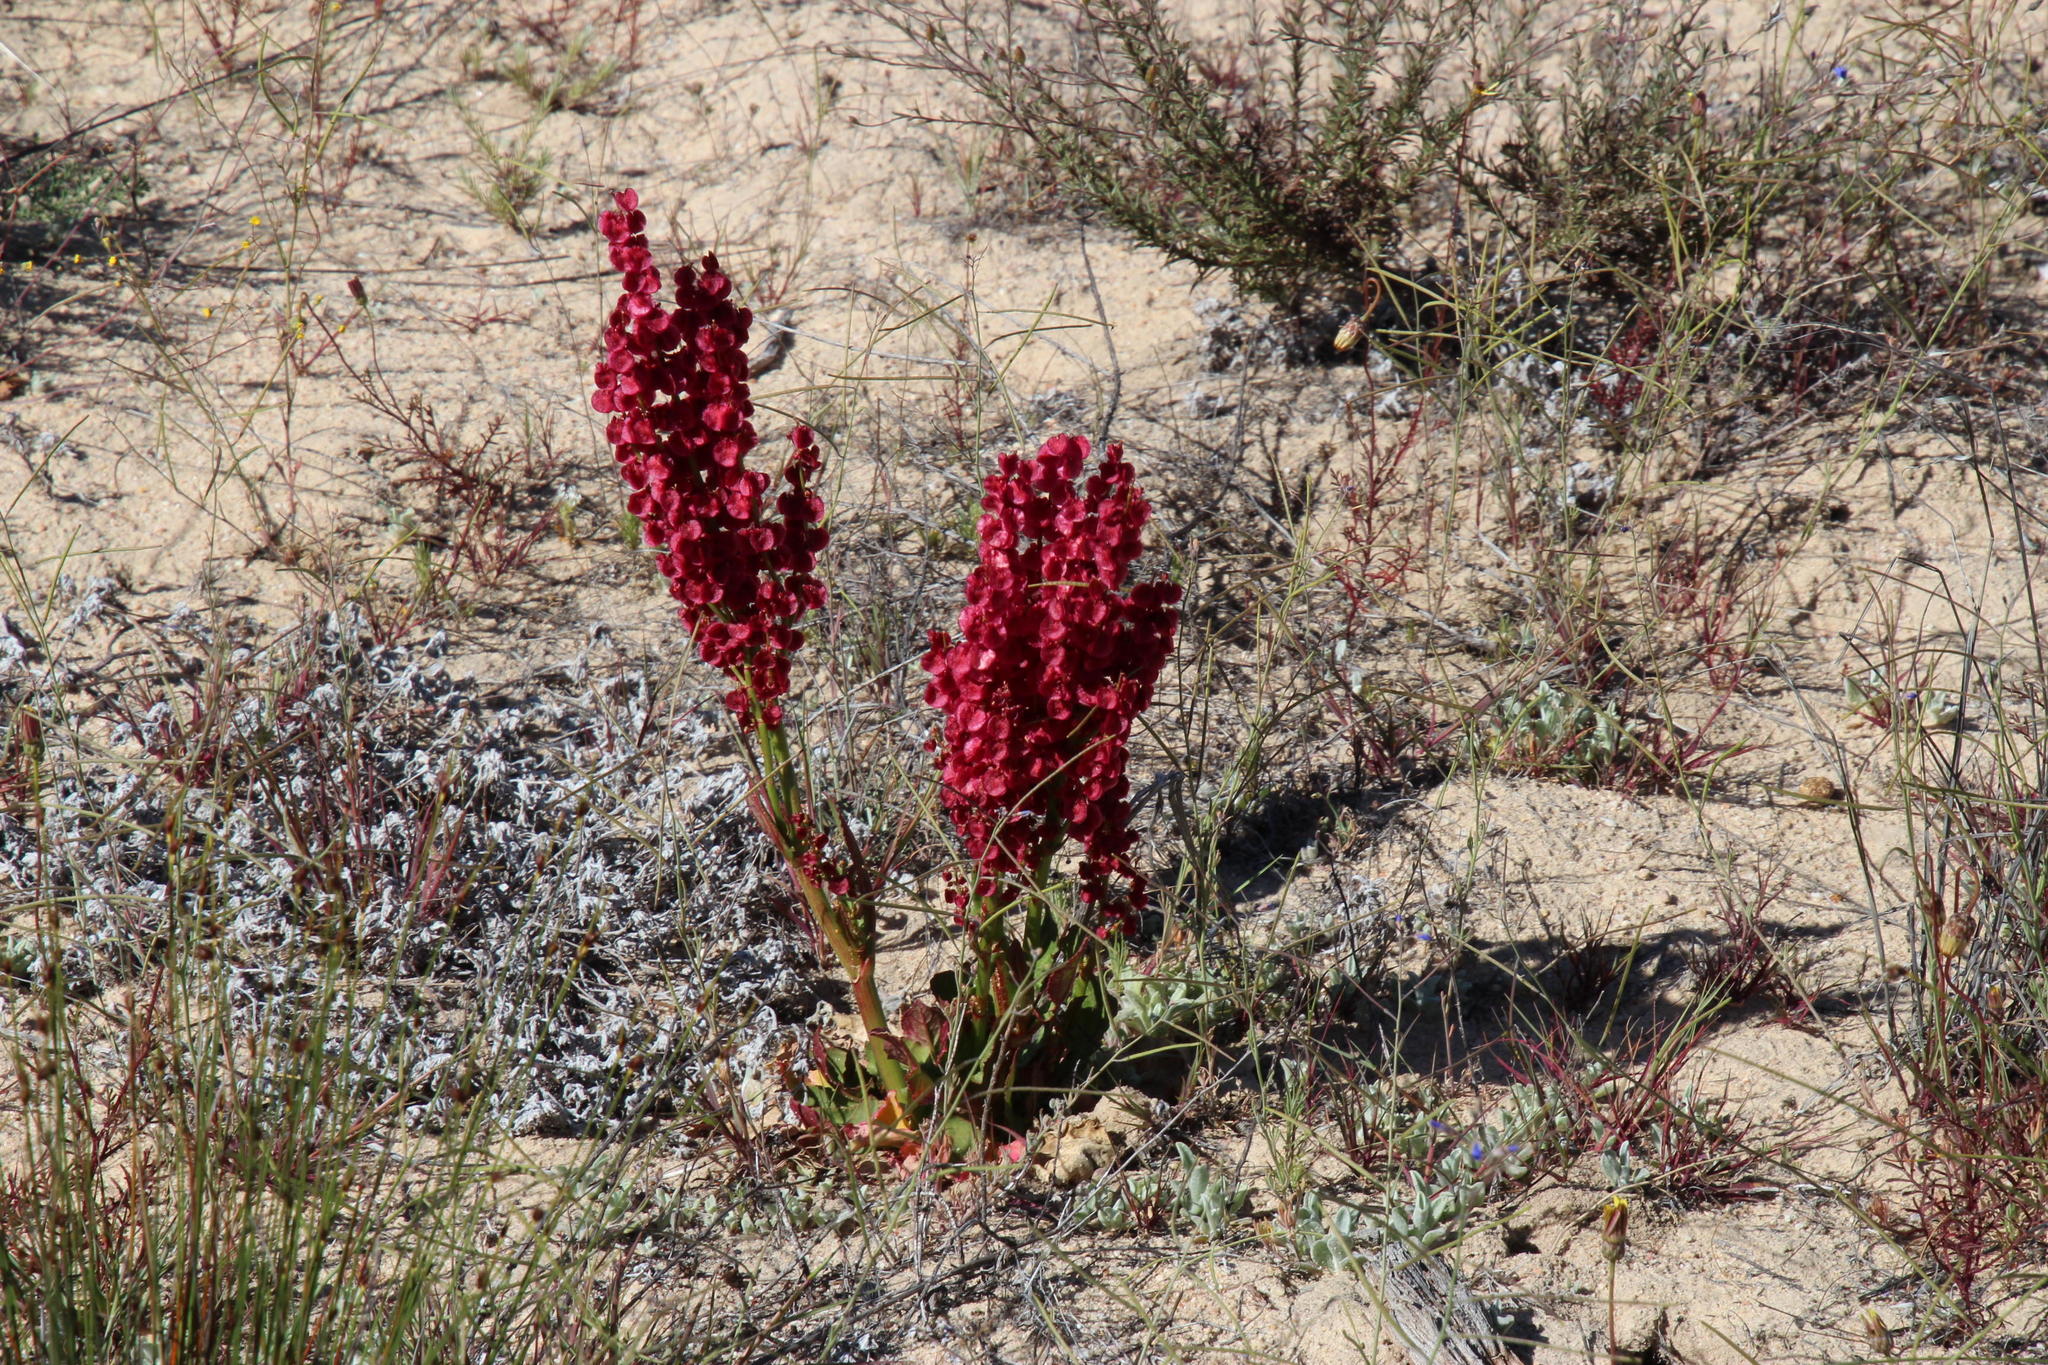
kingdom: Plantae
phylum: Tracheophyta
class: Magnoliopsida
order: Caryophyllales
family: Polygonaceae
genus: Rumex
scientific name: Rumex cordatus
